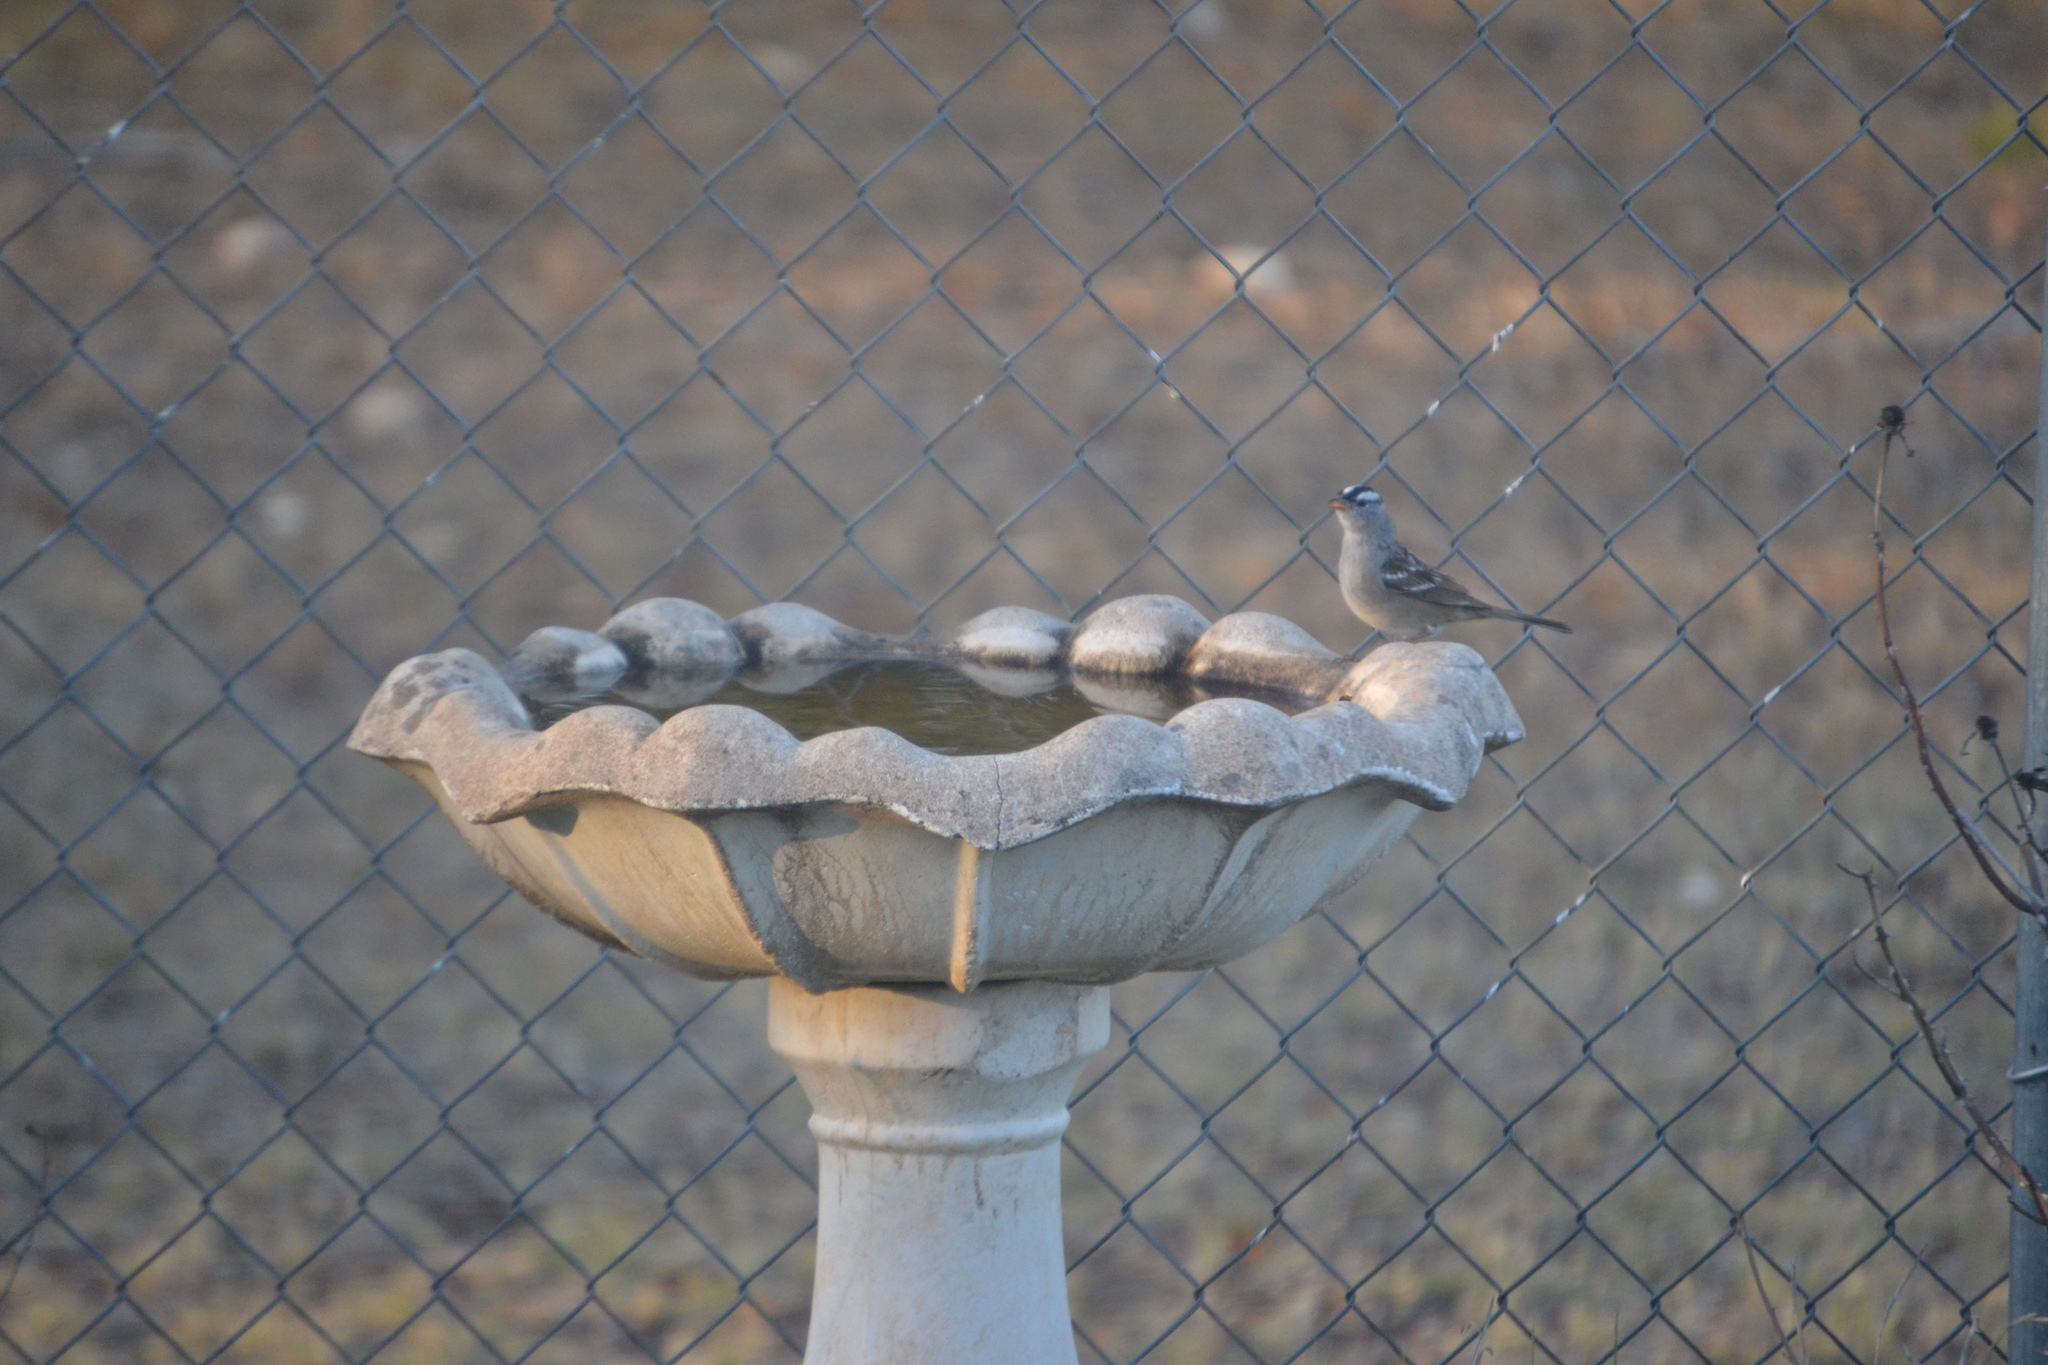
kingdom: Animalia
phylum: Chordata
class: Aves
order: Passeriformes
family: Passerellidae
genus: Zonotrichia
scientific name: Zonotrichia leucophrys
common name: White-crowned sparrow
